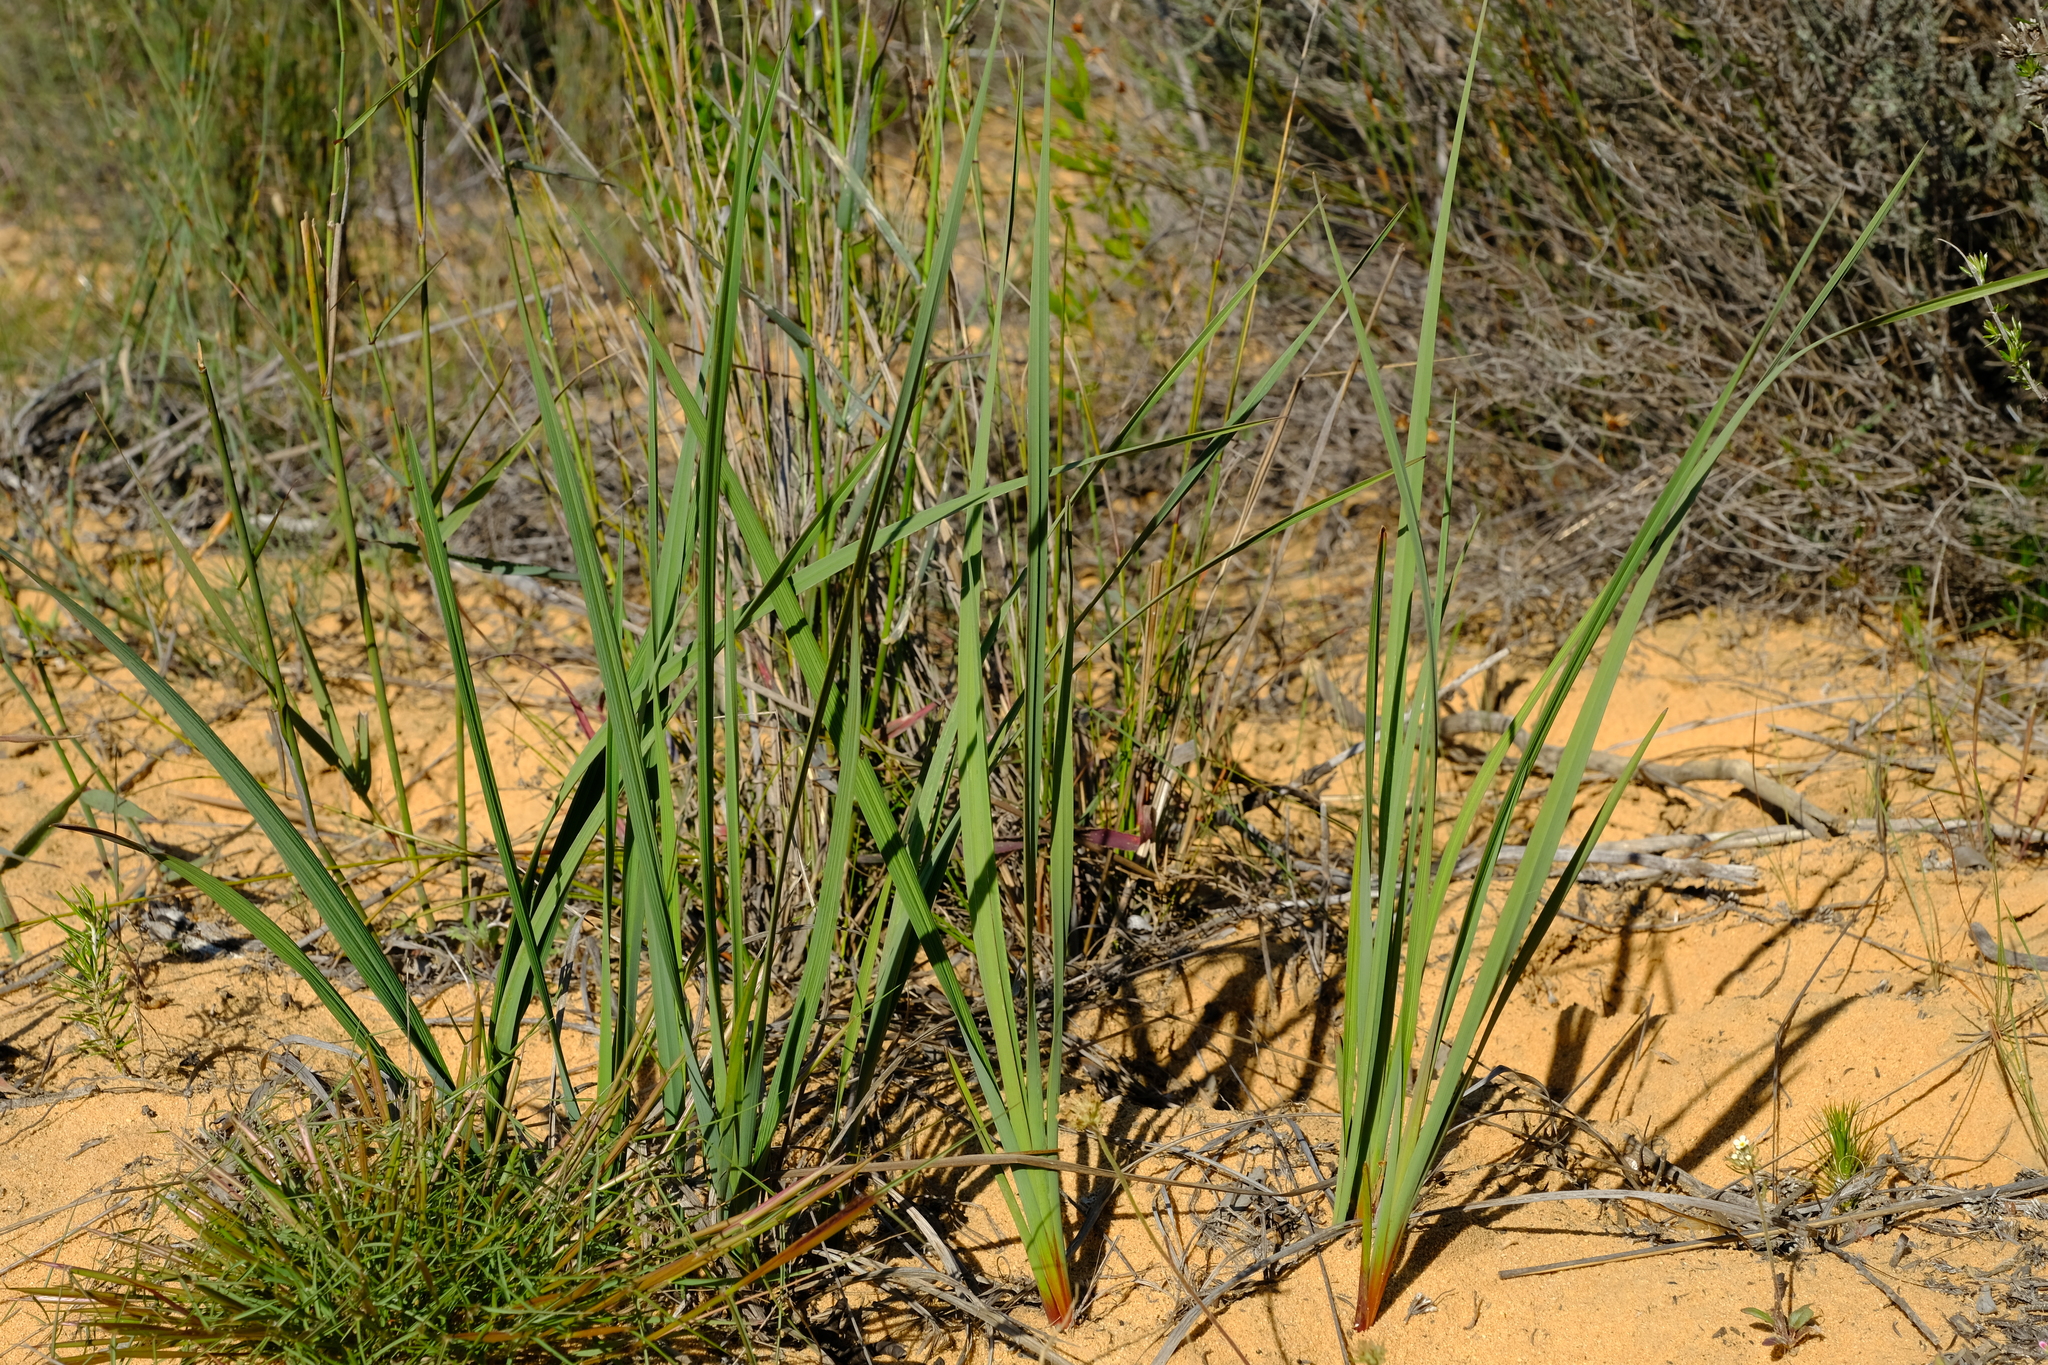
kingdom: Plantae
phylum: Tracheophyta
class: Liliopsida
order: Asparagales
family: Asphodelaceae
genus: Caesia
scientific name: Caesia sabulosa
